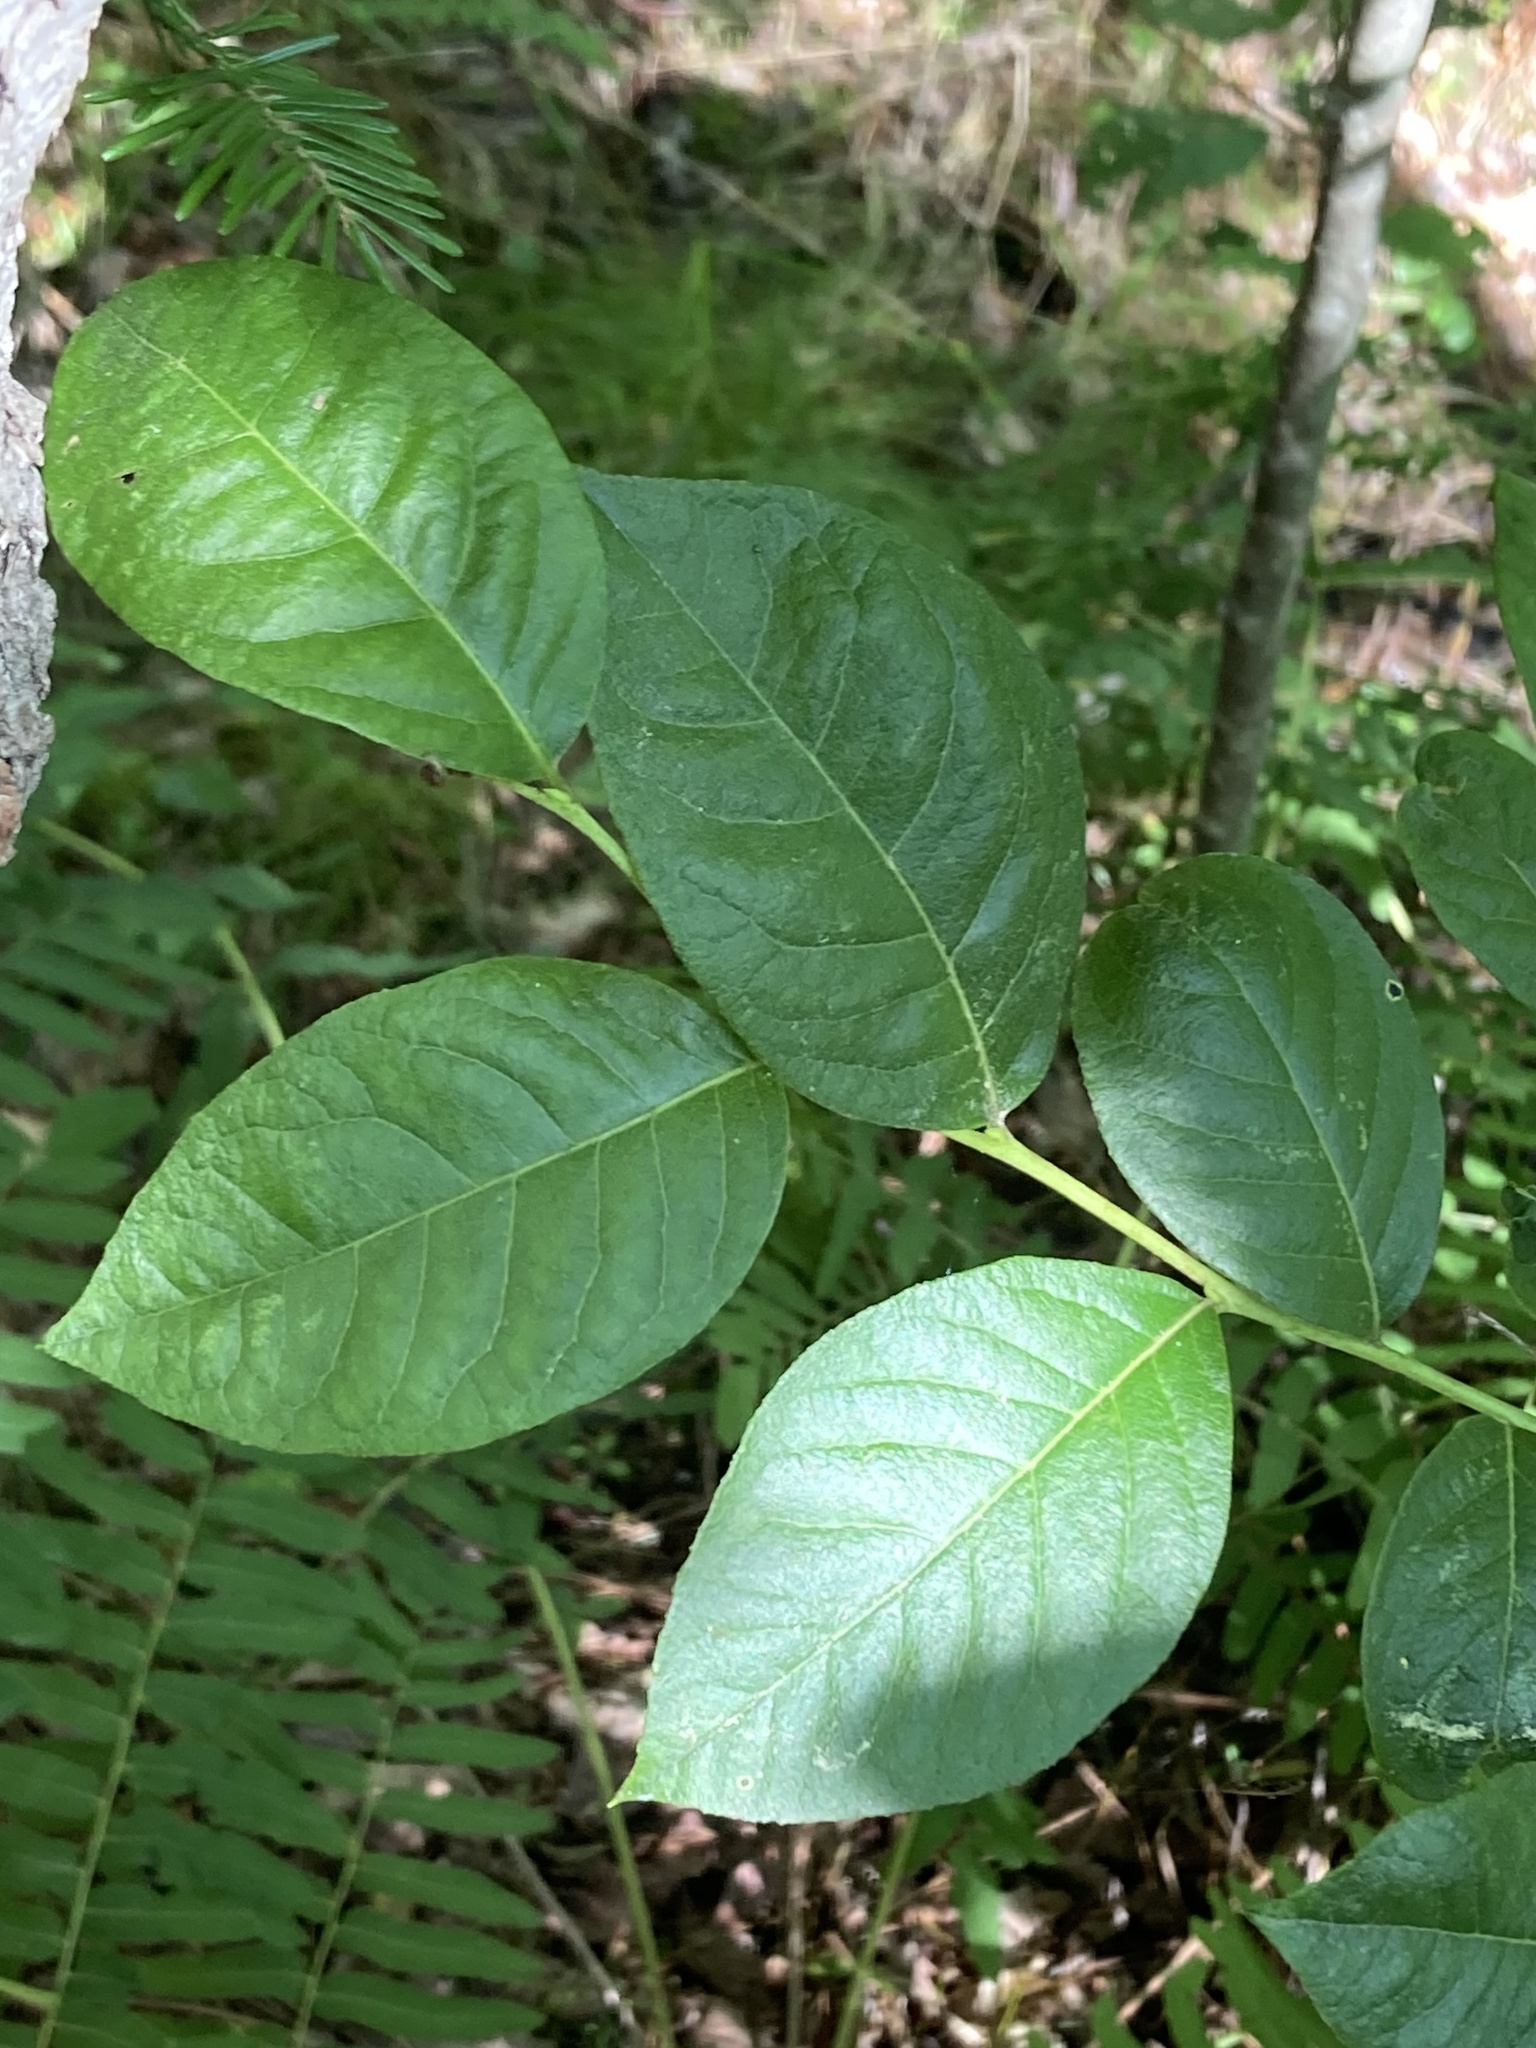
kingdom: Plantae
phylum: Tracheophyta
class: Magnoliopsida
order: Ericales
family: Ericaceae
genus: Lyonia
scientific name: Lyonia ligustrina
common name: Maleberry
